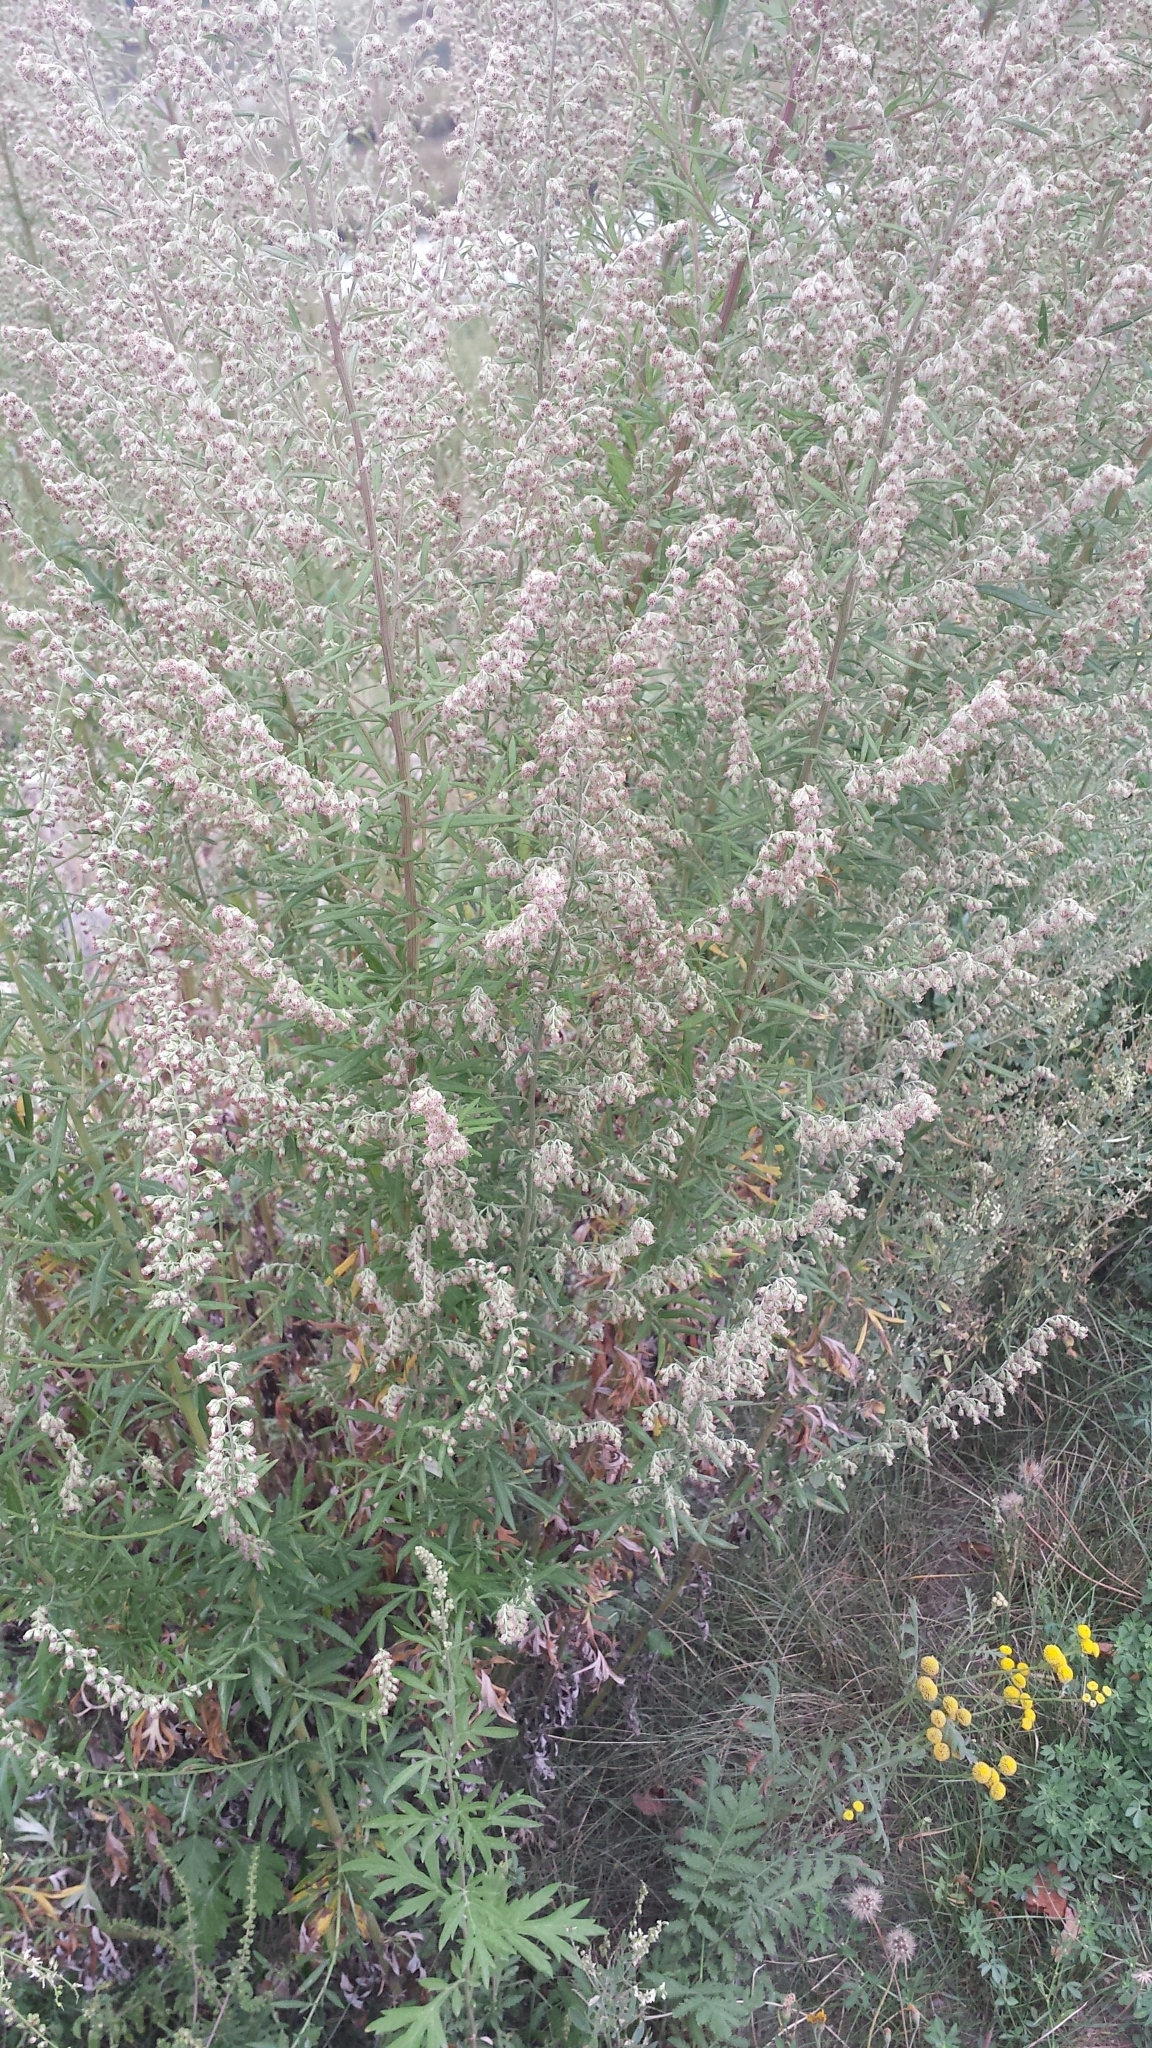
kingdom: Plantae
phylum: Tracheophyta
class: Magnoliopsida
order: Asterales
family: Asteraceae
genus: Artemisia
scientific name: Artemisia vulgaris
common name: Mugwort
